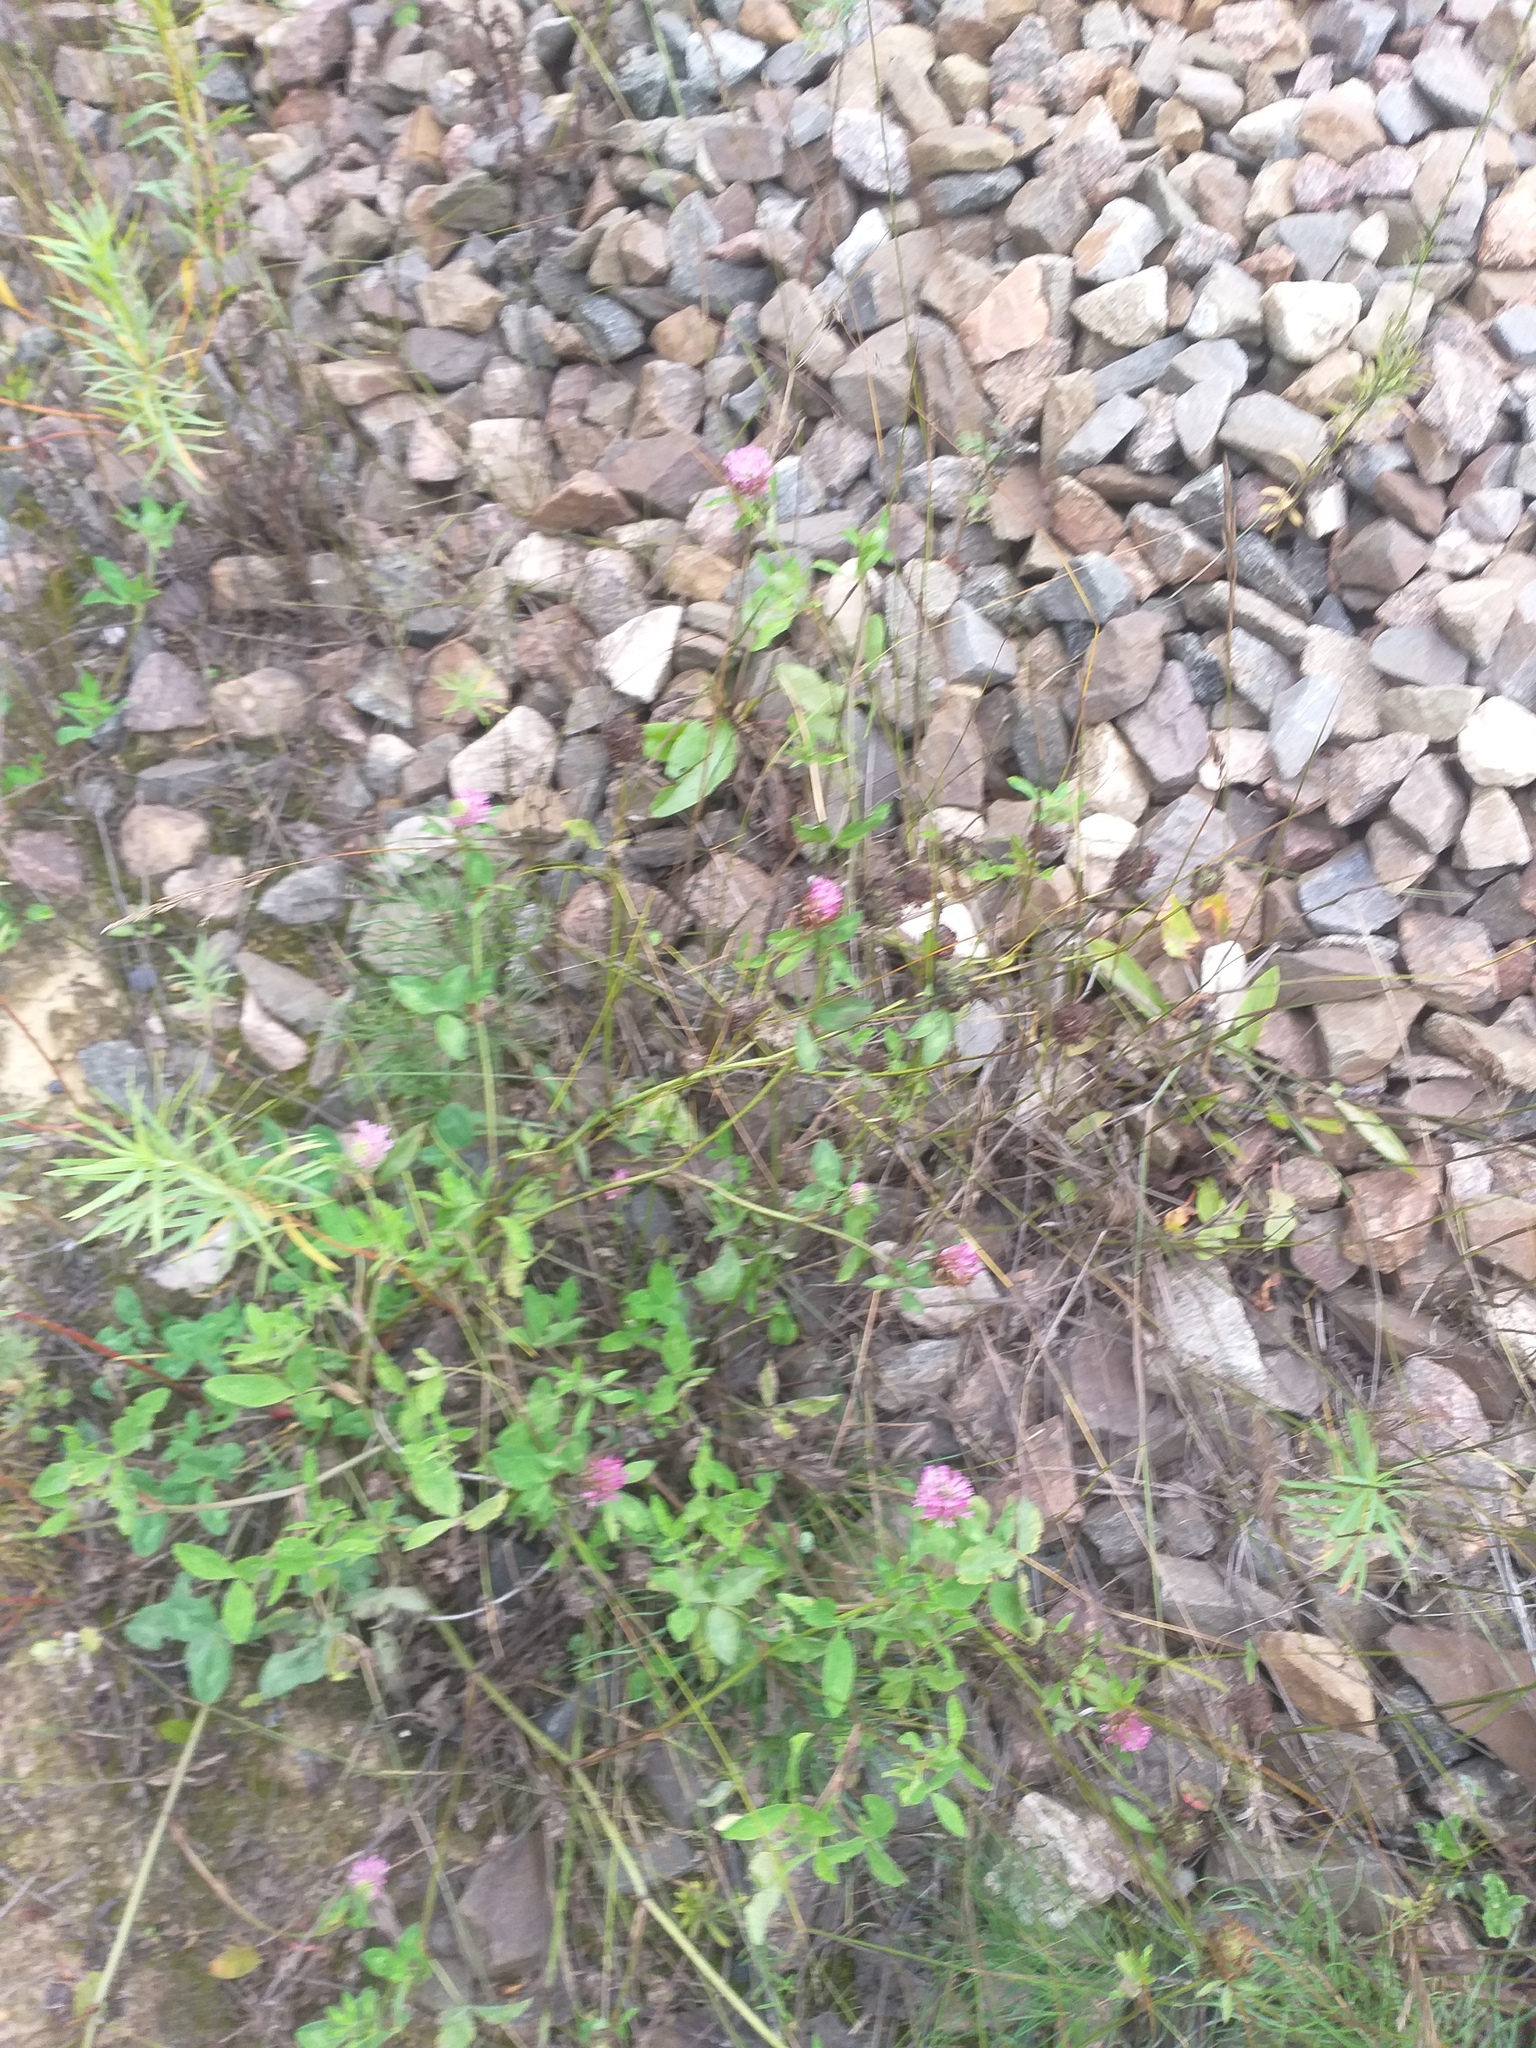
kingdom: Plantae
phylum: Tracheophyta
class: Magnoliopsida
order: Fabales
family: Fabaceae
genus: Trifolium
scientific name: Trifolium pratense
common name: Red clover
